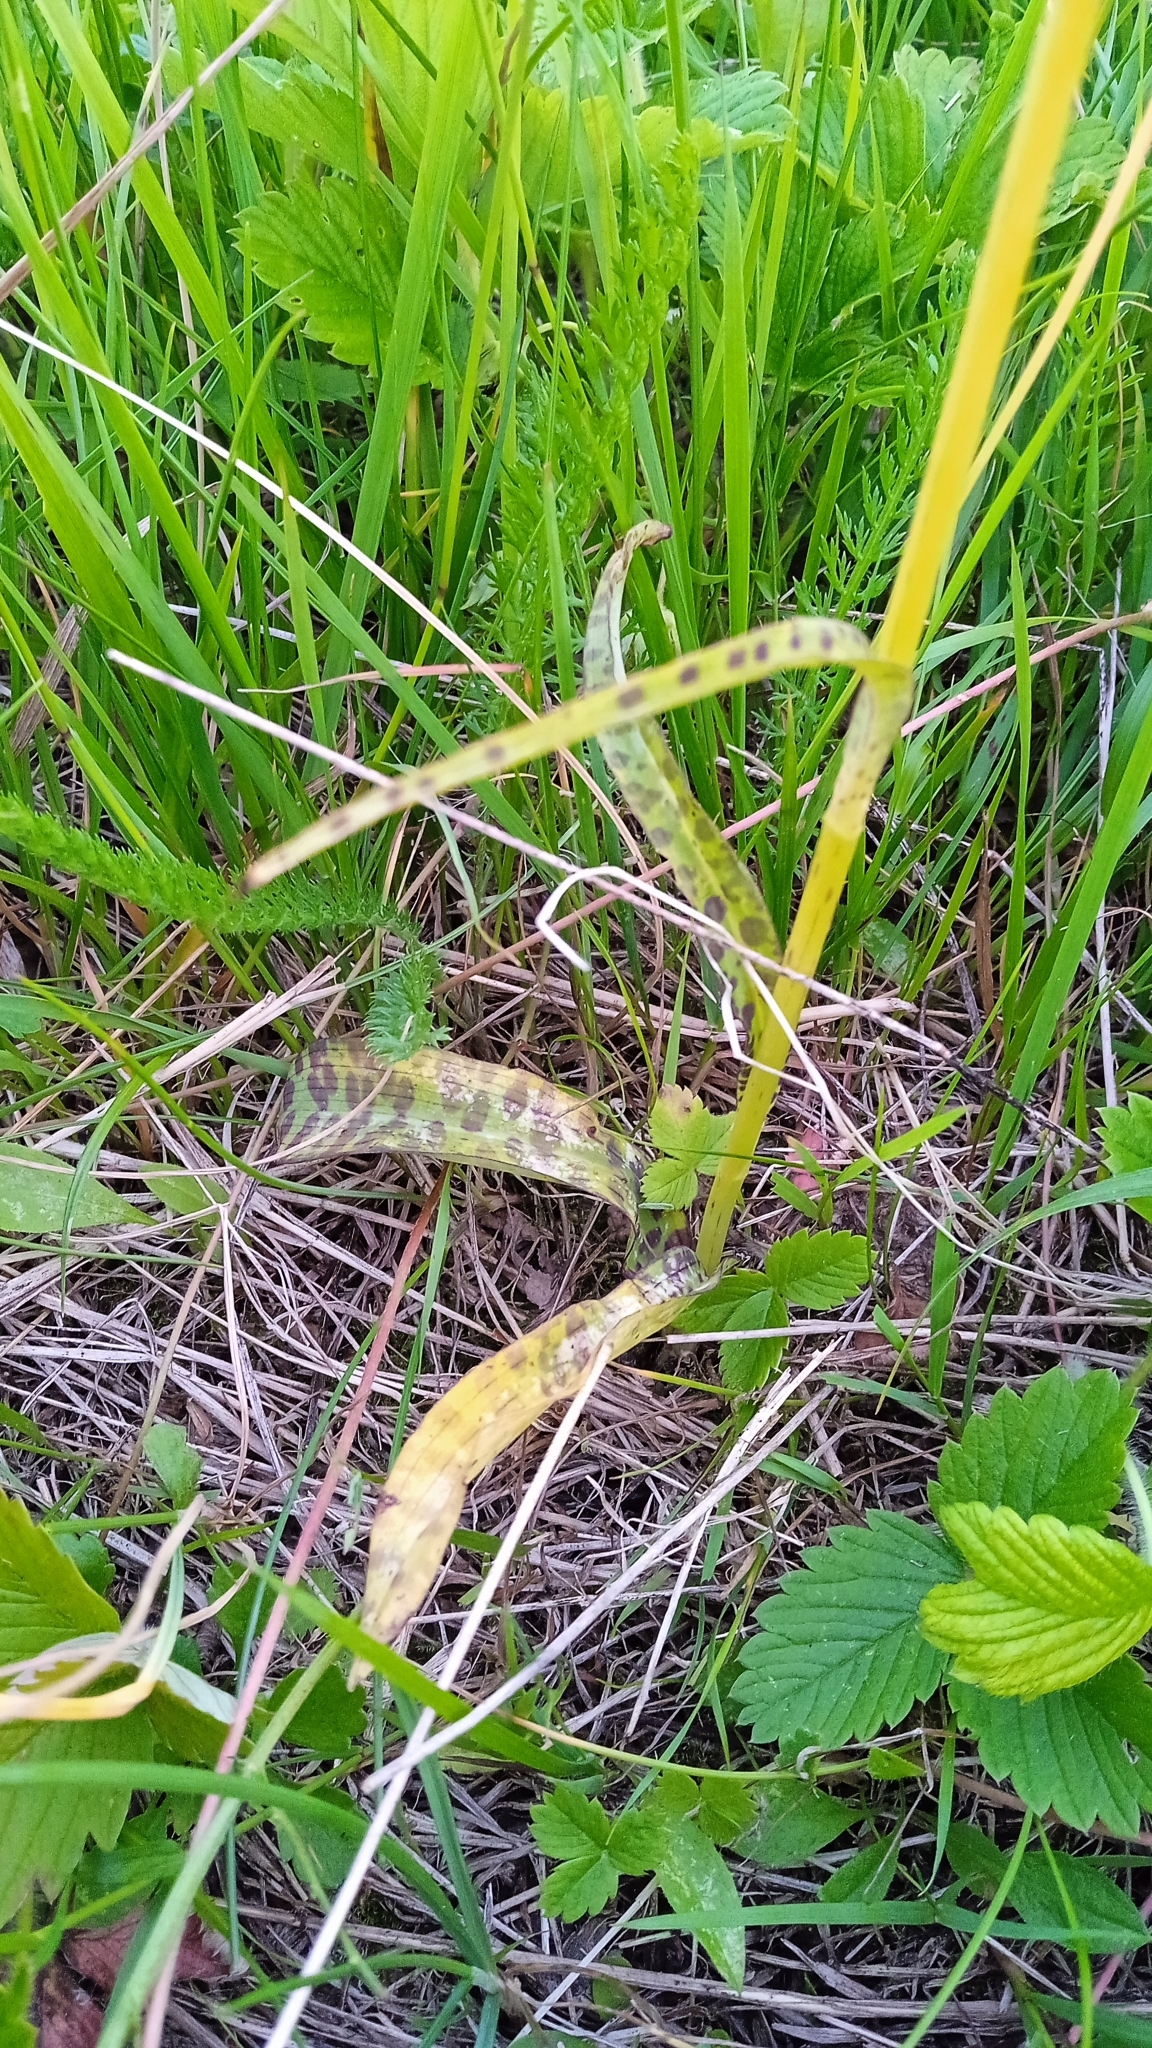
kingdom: Plantae
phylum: Tracheophyta
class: Liliopsida
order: Asparagales
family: Orchidaceae
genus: Dactylorhiza
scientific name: Dactylorhiza maculata
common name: Heath spotted-orchid
